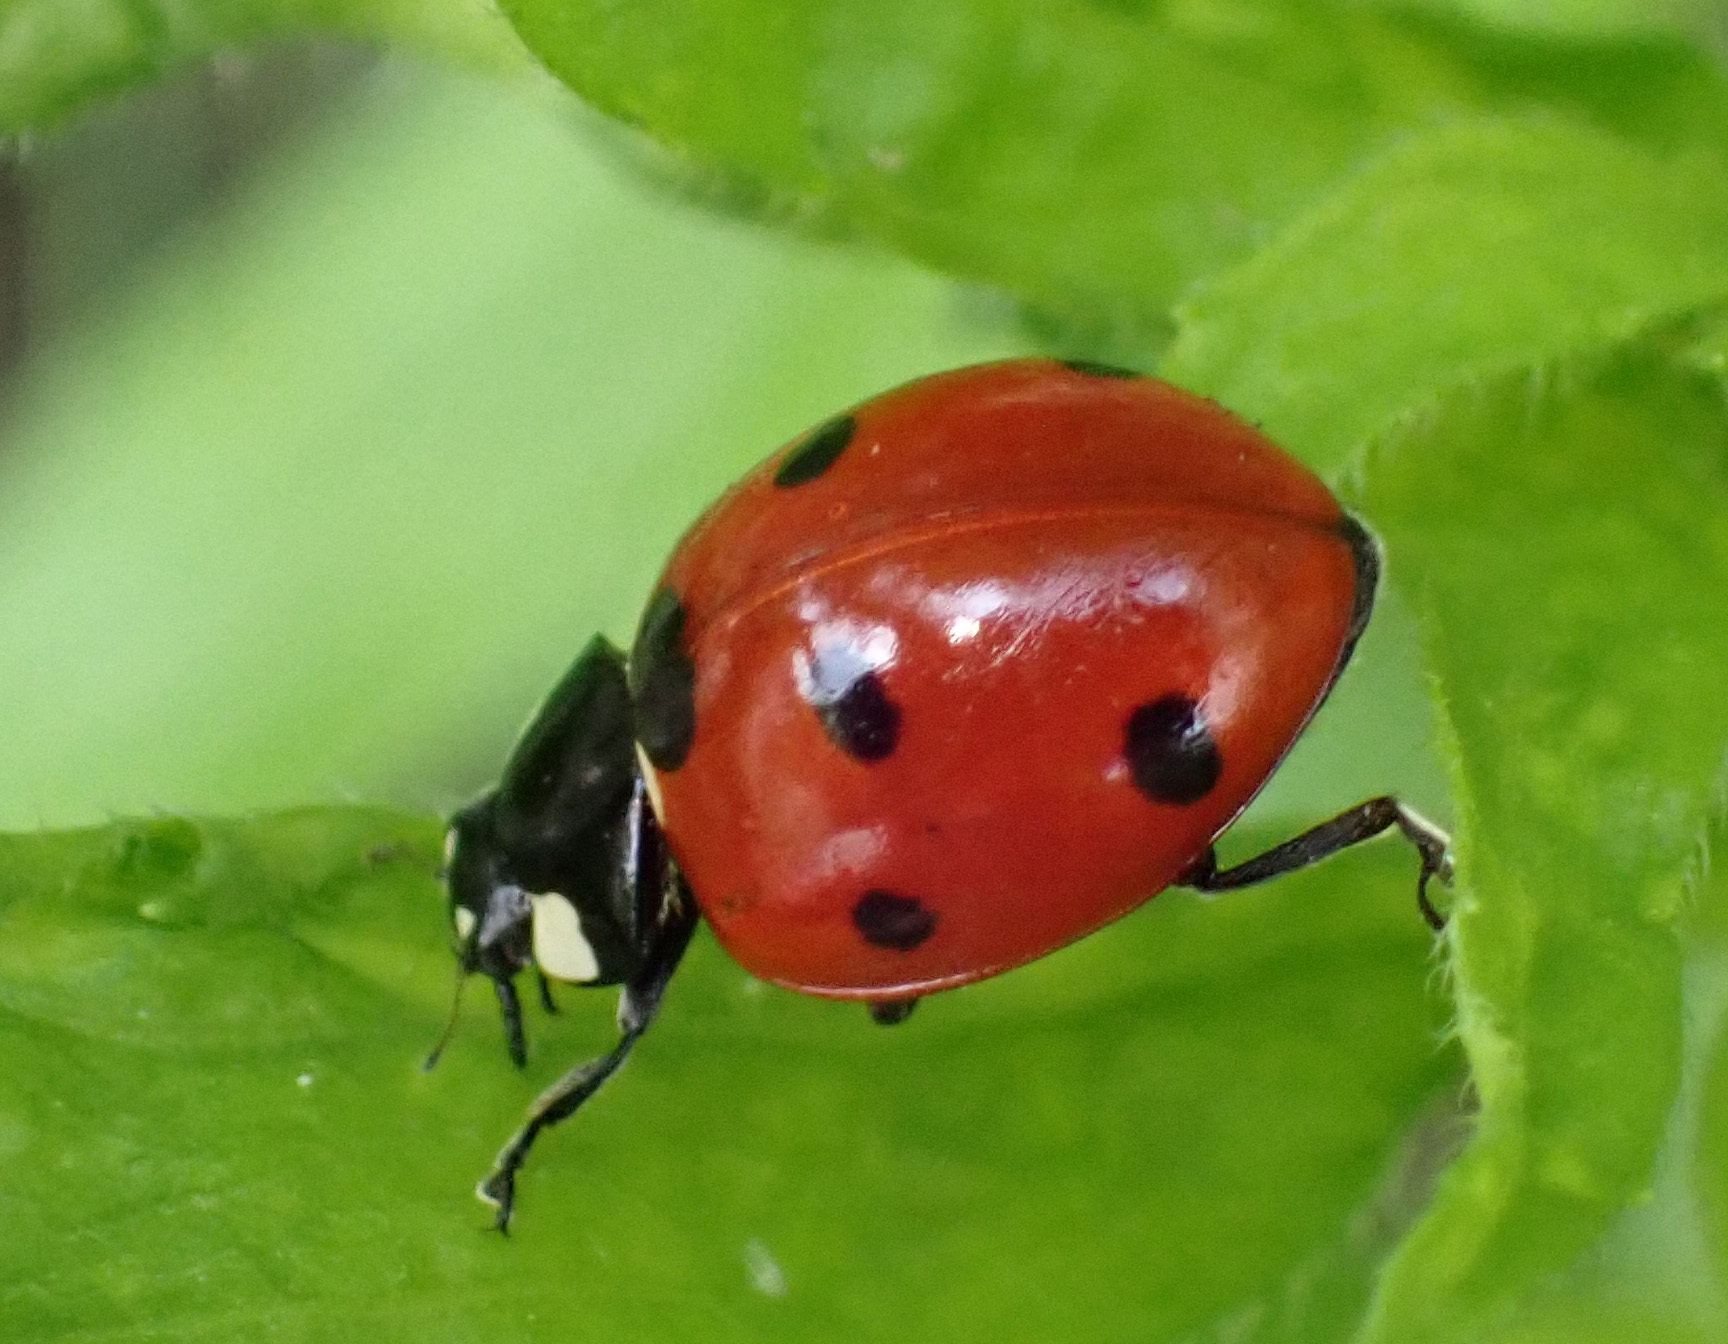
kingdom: Animalia
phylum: Arthropoda
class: Insecta
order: Coleoptera
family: Coccinellidae
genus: Coccinella
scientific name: Coccinella septempunctata
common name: Sevenspotted lady beetle
